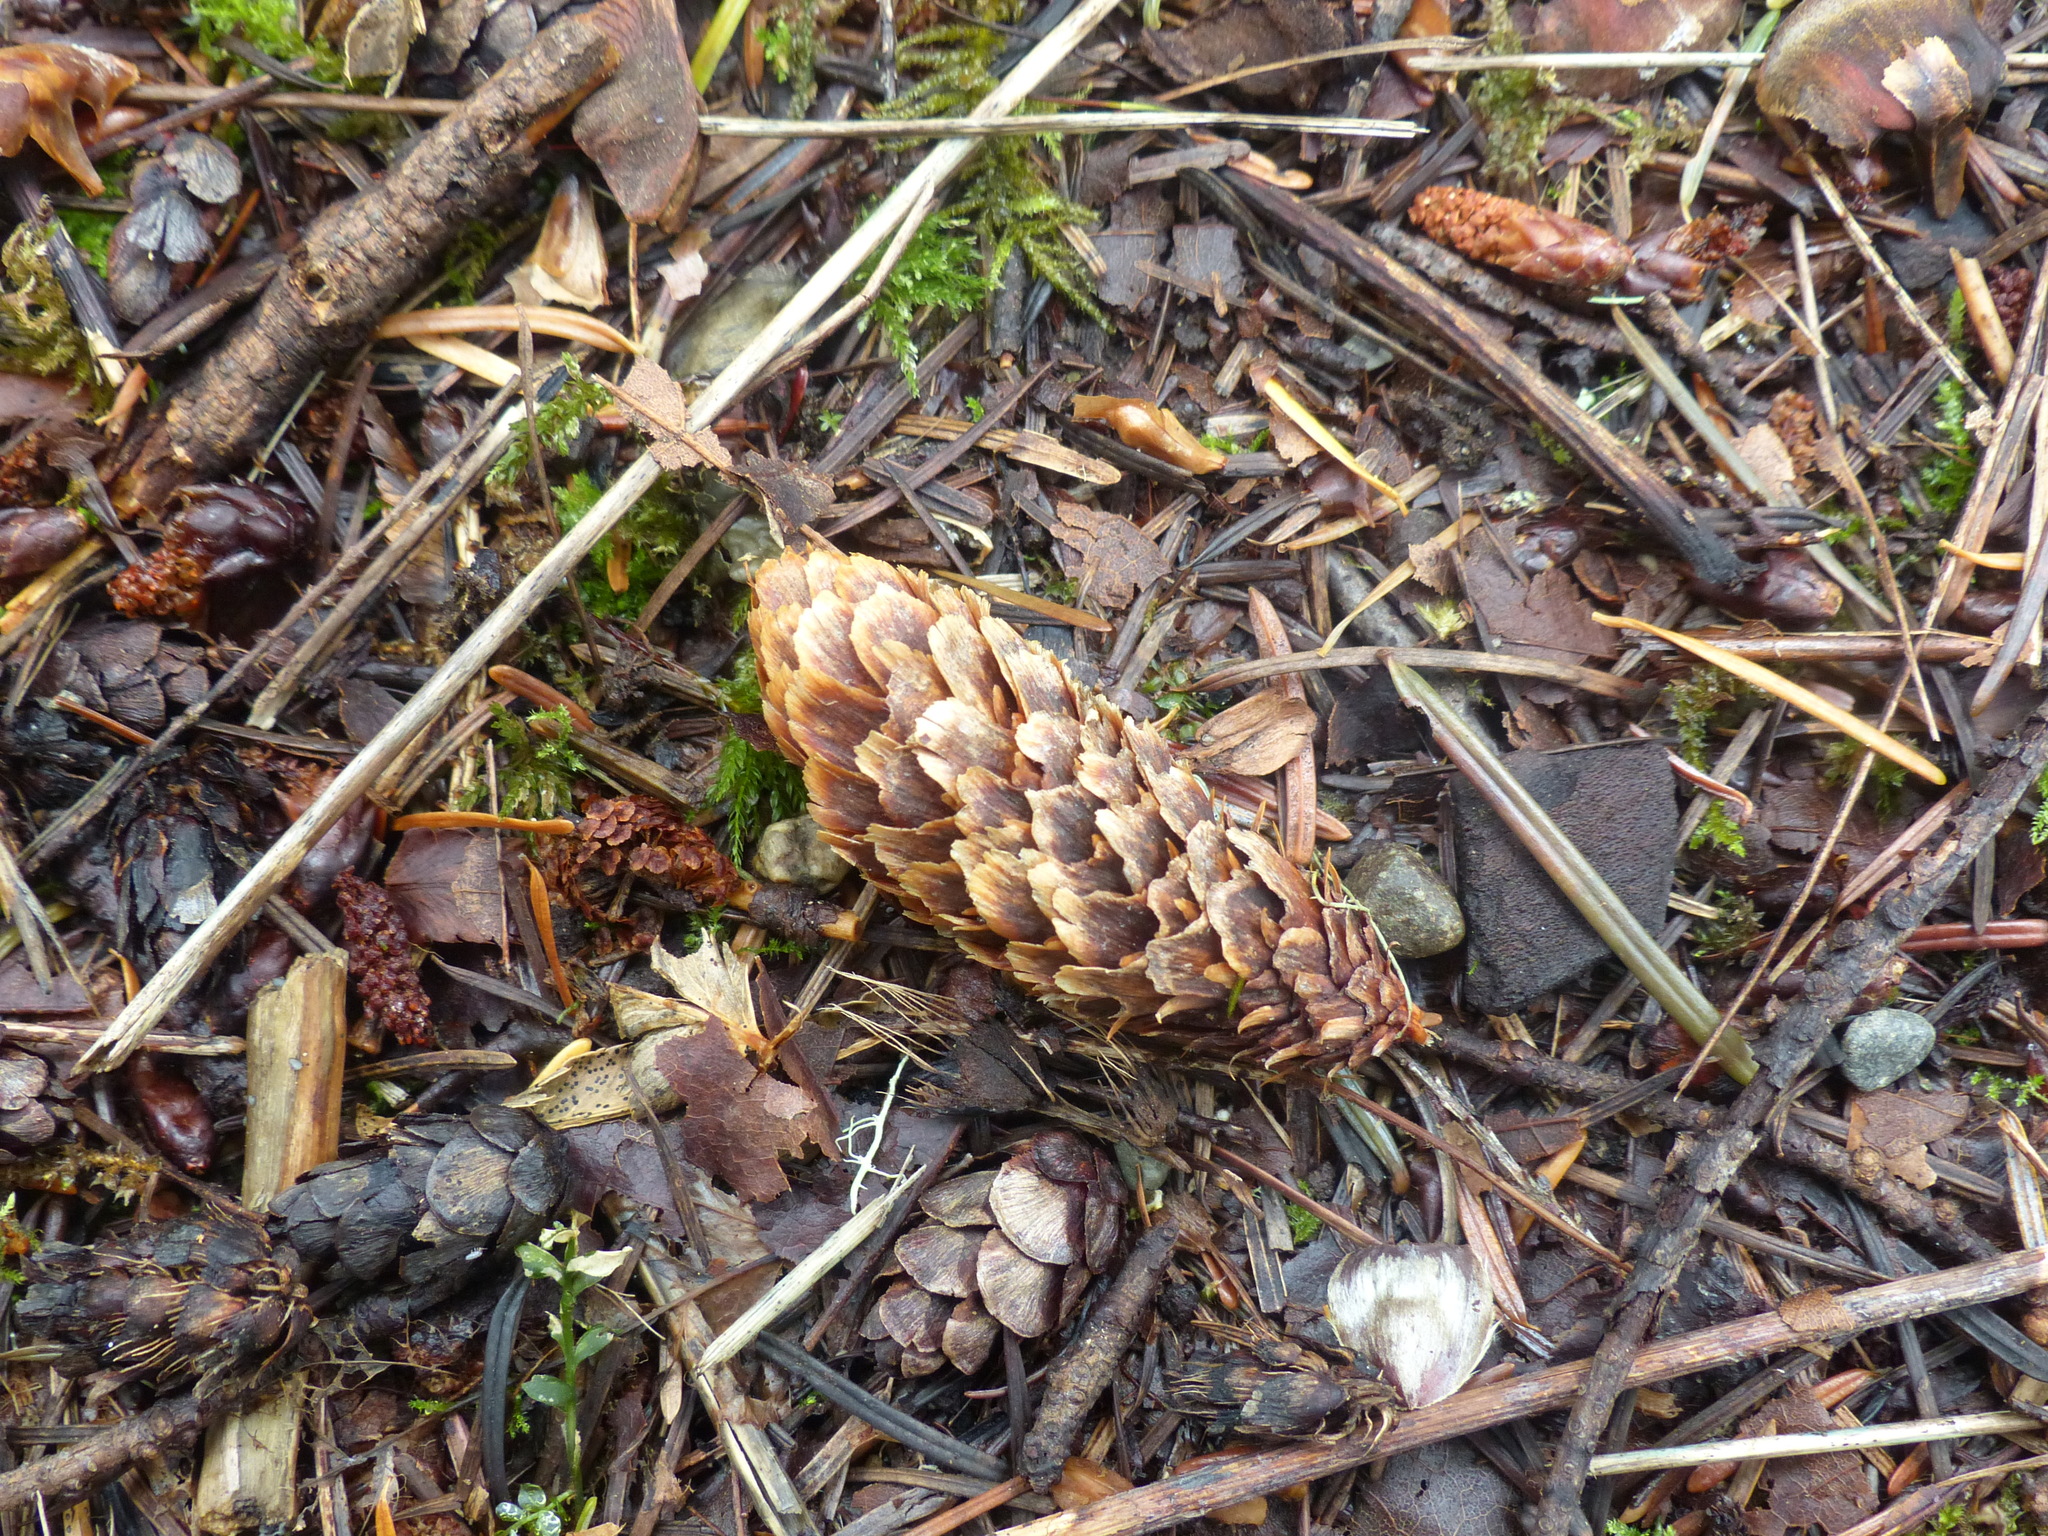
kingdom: Plantae
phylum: Tracheophyta
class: Pinopsida
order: Pinales
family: Pinaceae
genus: Picea
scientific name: Picea sitchensis
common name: Sitka spruce
